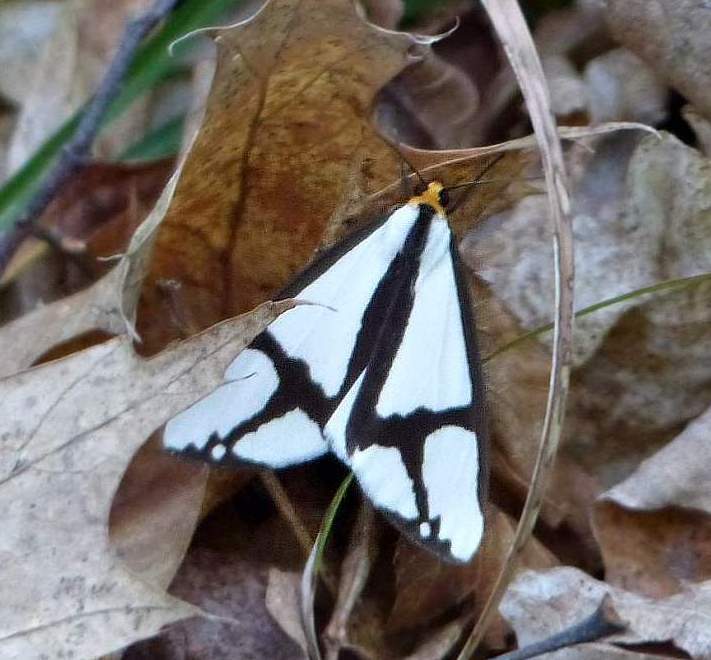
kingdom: Animalia
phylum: Arthropoda
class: Insecta
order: Lepidoptera
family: Erebidae
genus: Haploa
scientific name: Haploa contigua
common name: Neighbor moth
